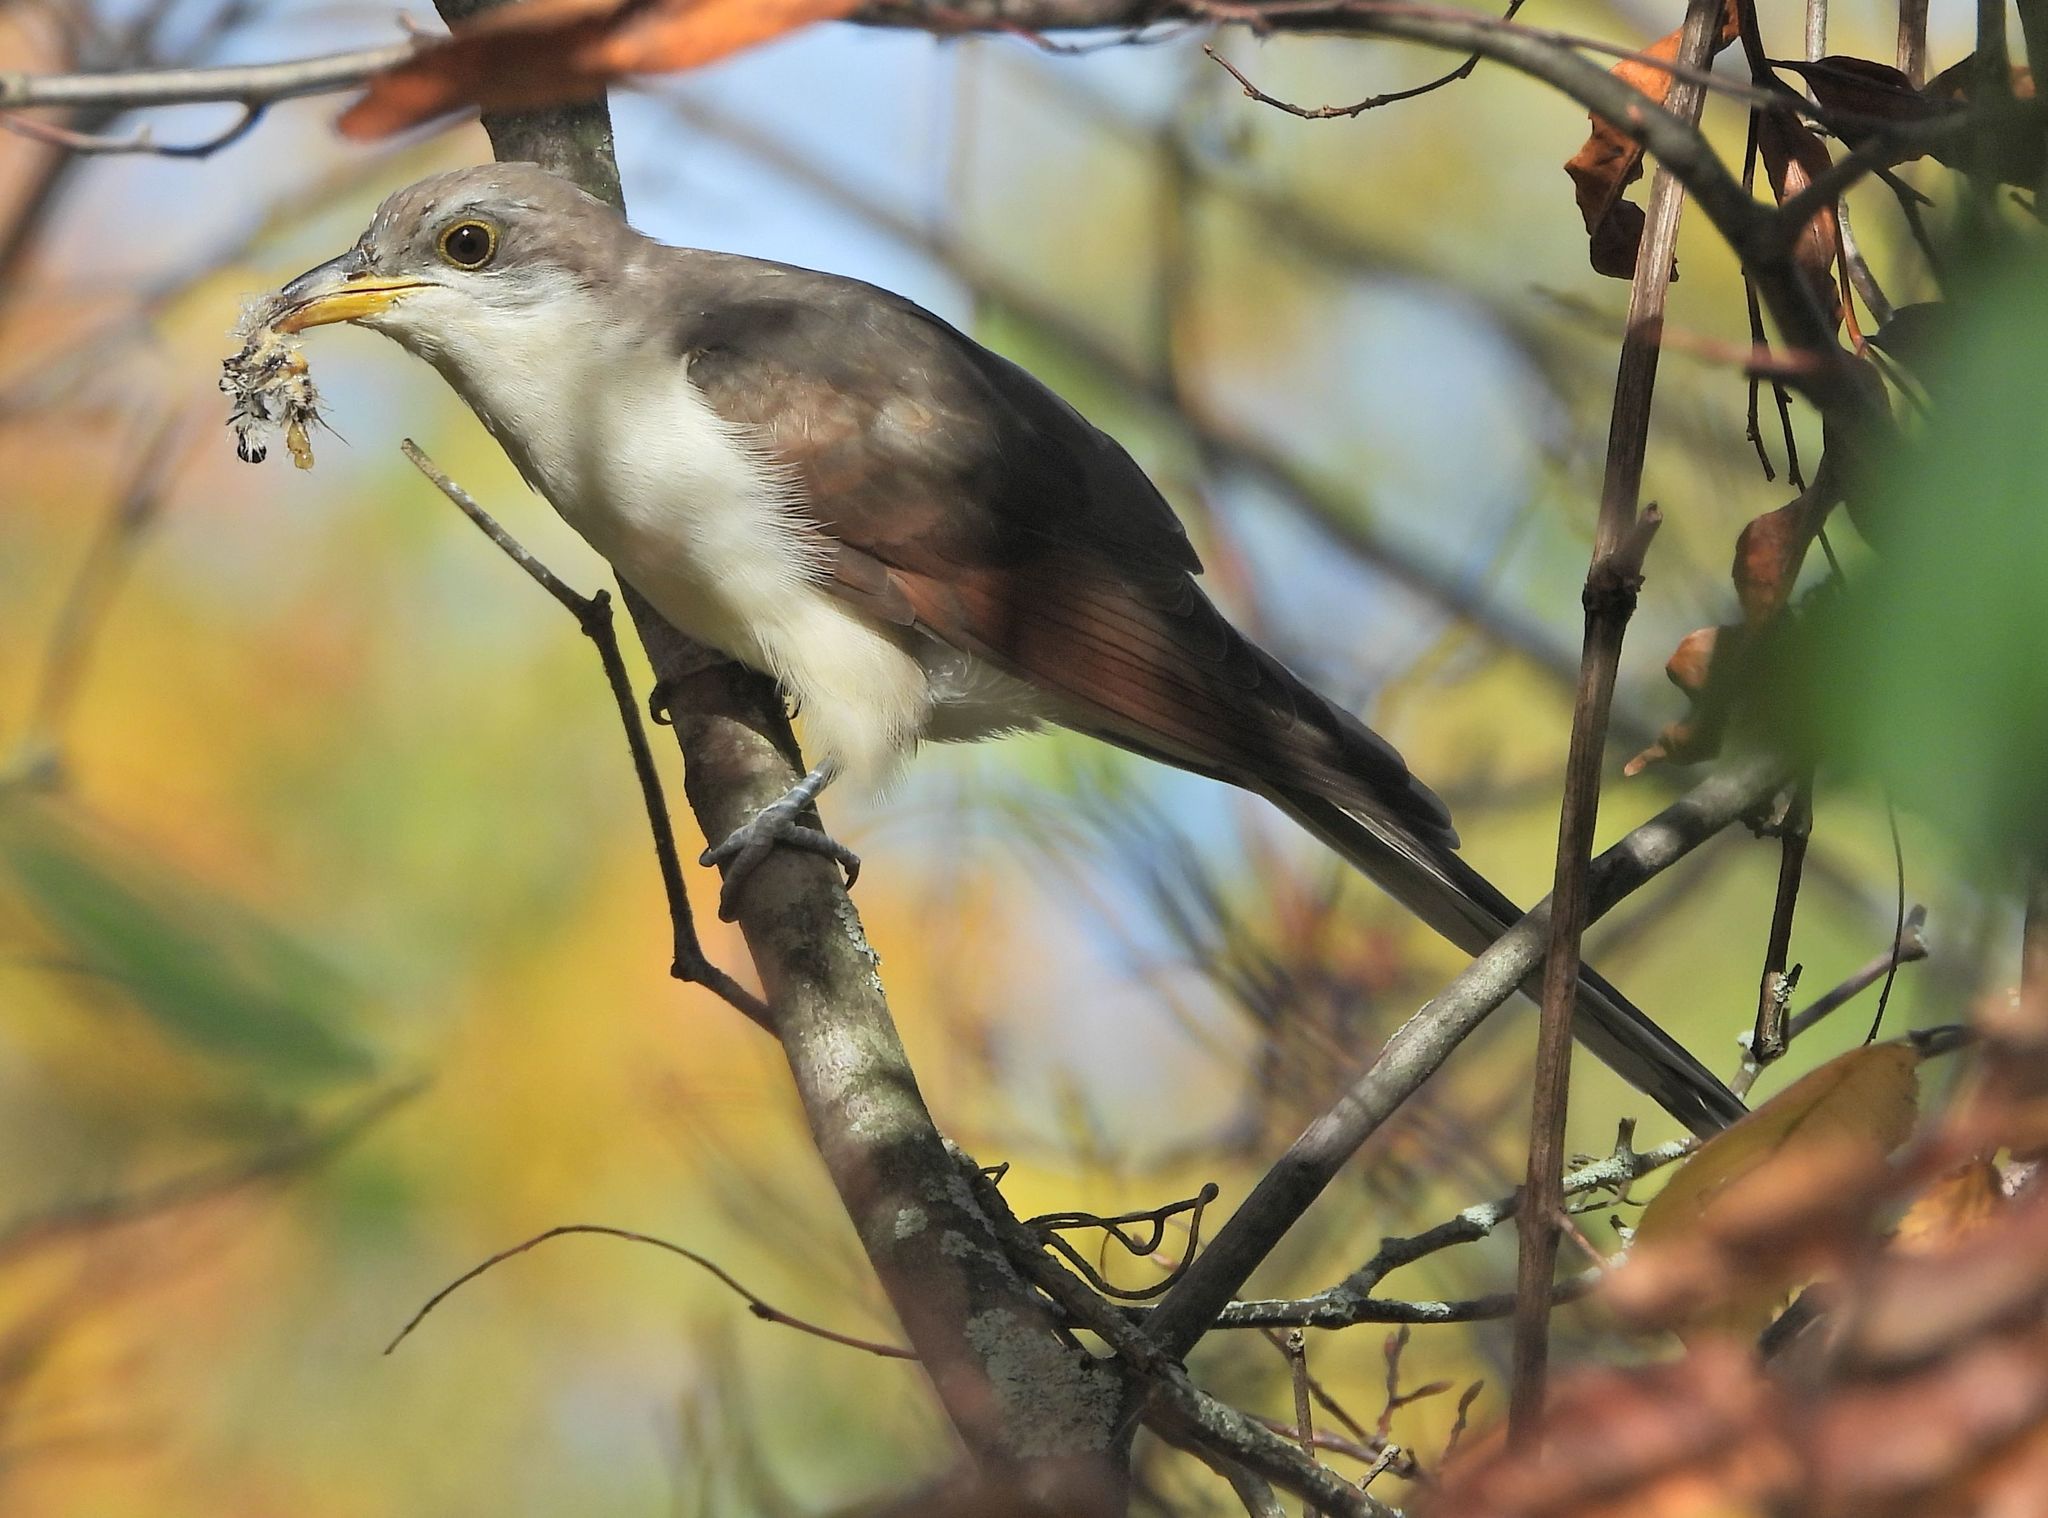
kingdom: Animalia
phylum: Chordata
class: Aves
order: Cuculiformes
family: Cuculidae
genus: Coccyzus
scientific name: Coccyzus americanus
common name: Yellow-billed cuckoo
